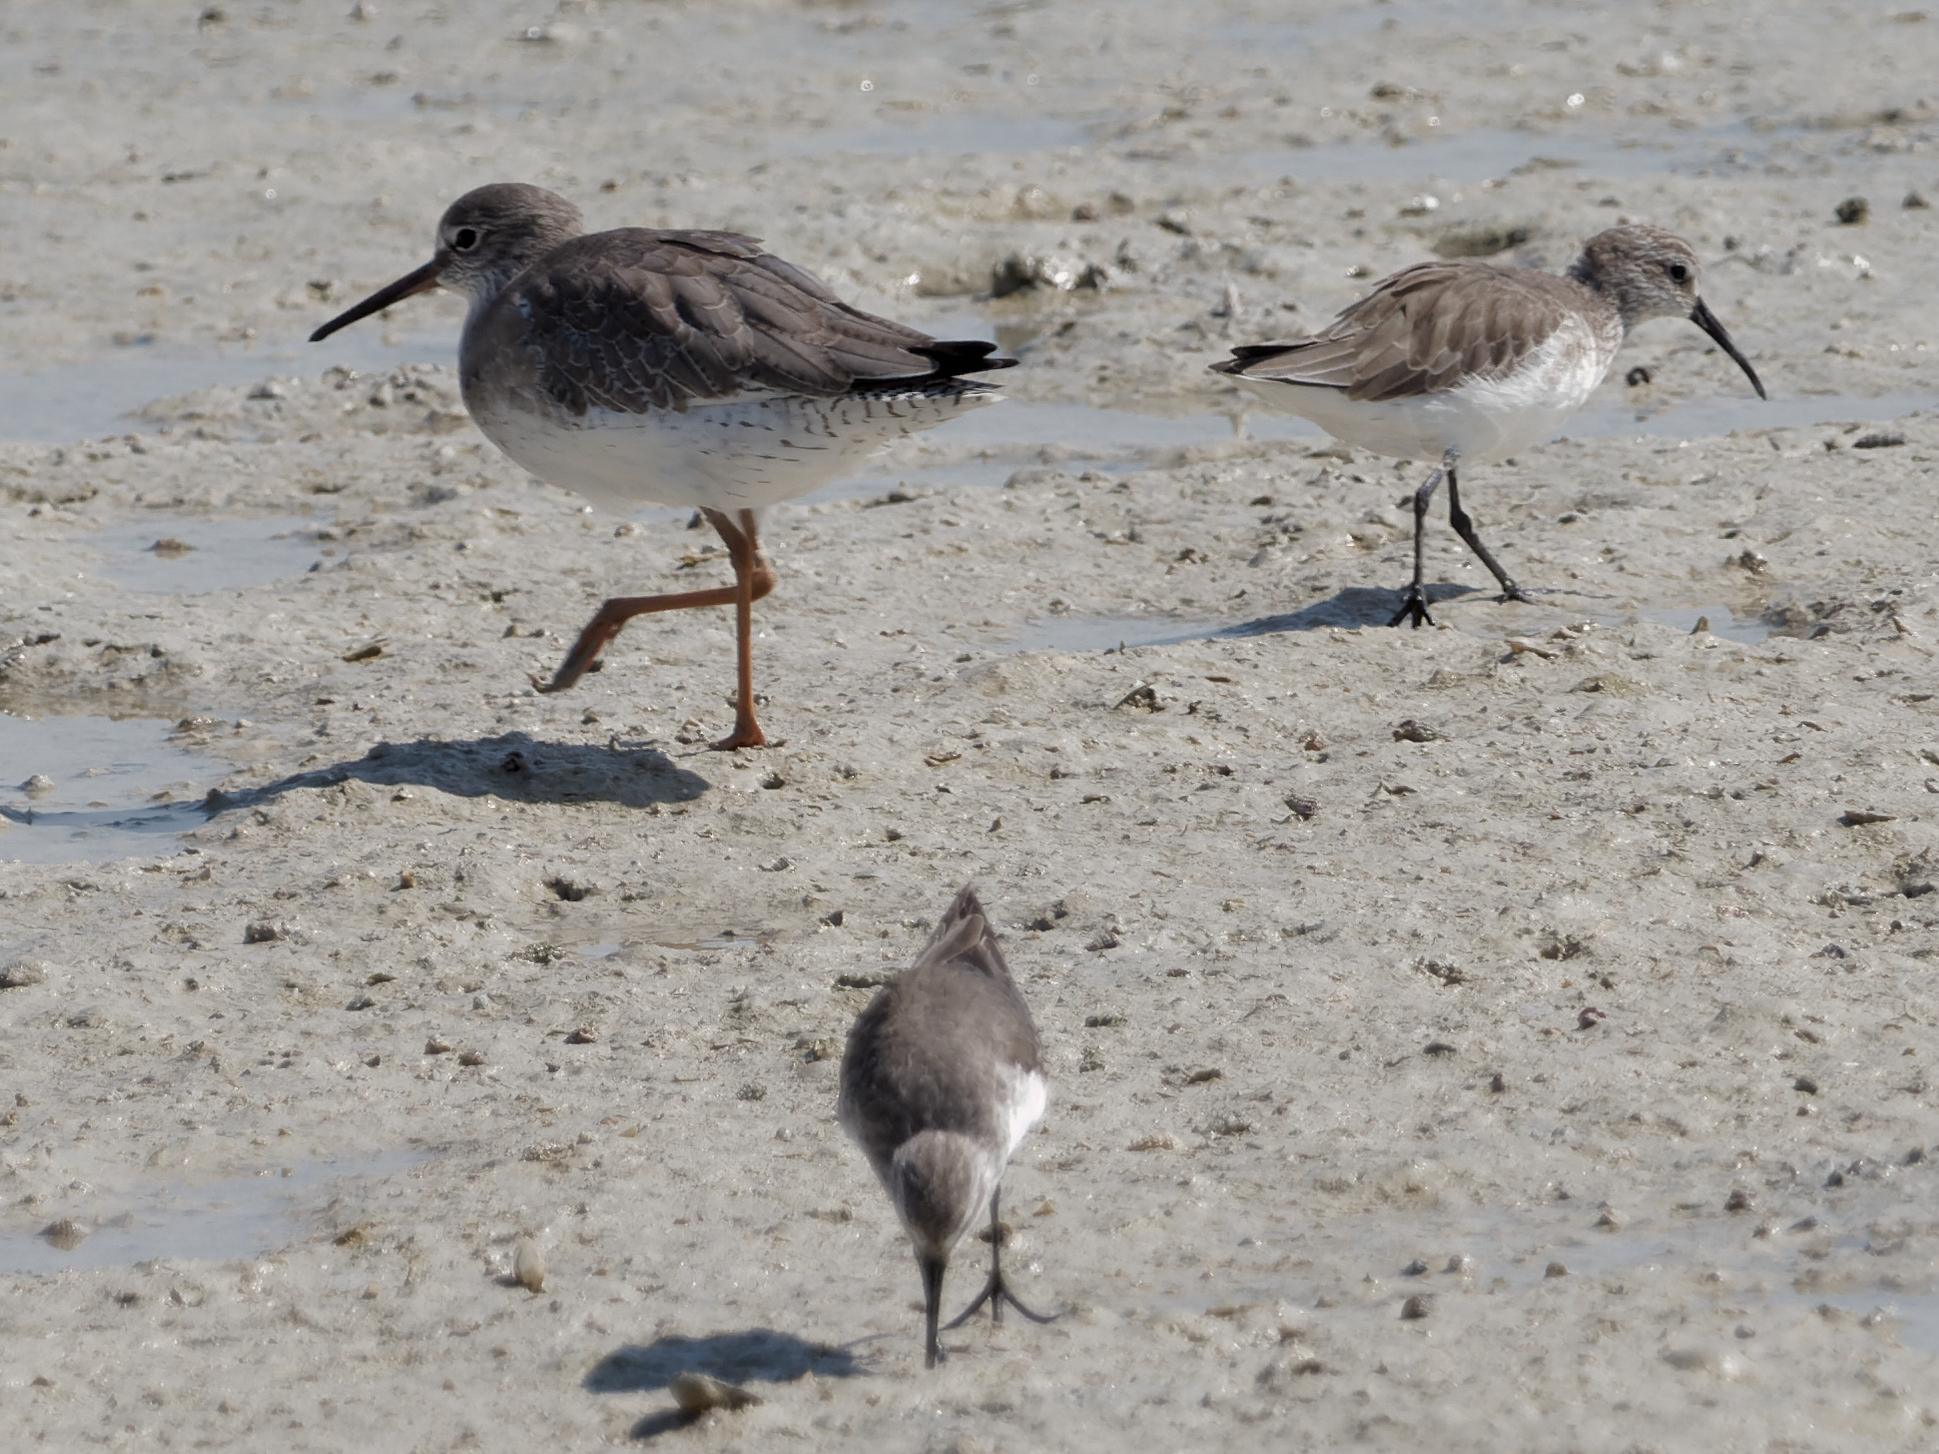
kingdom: Animalia
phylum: Chordata
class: Aves
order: Charadriiformes
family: Scolopacidae
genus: Tringa
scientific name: Tringa totanus
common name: Common redshank
